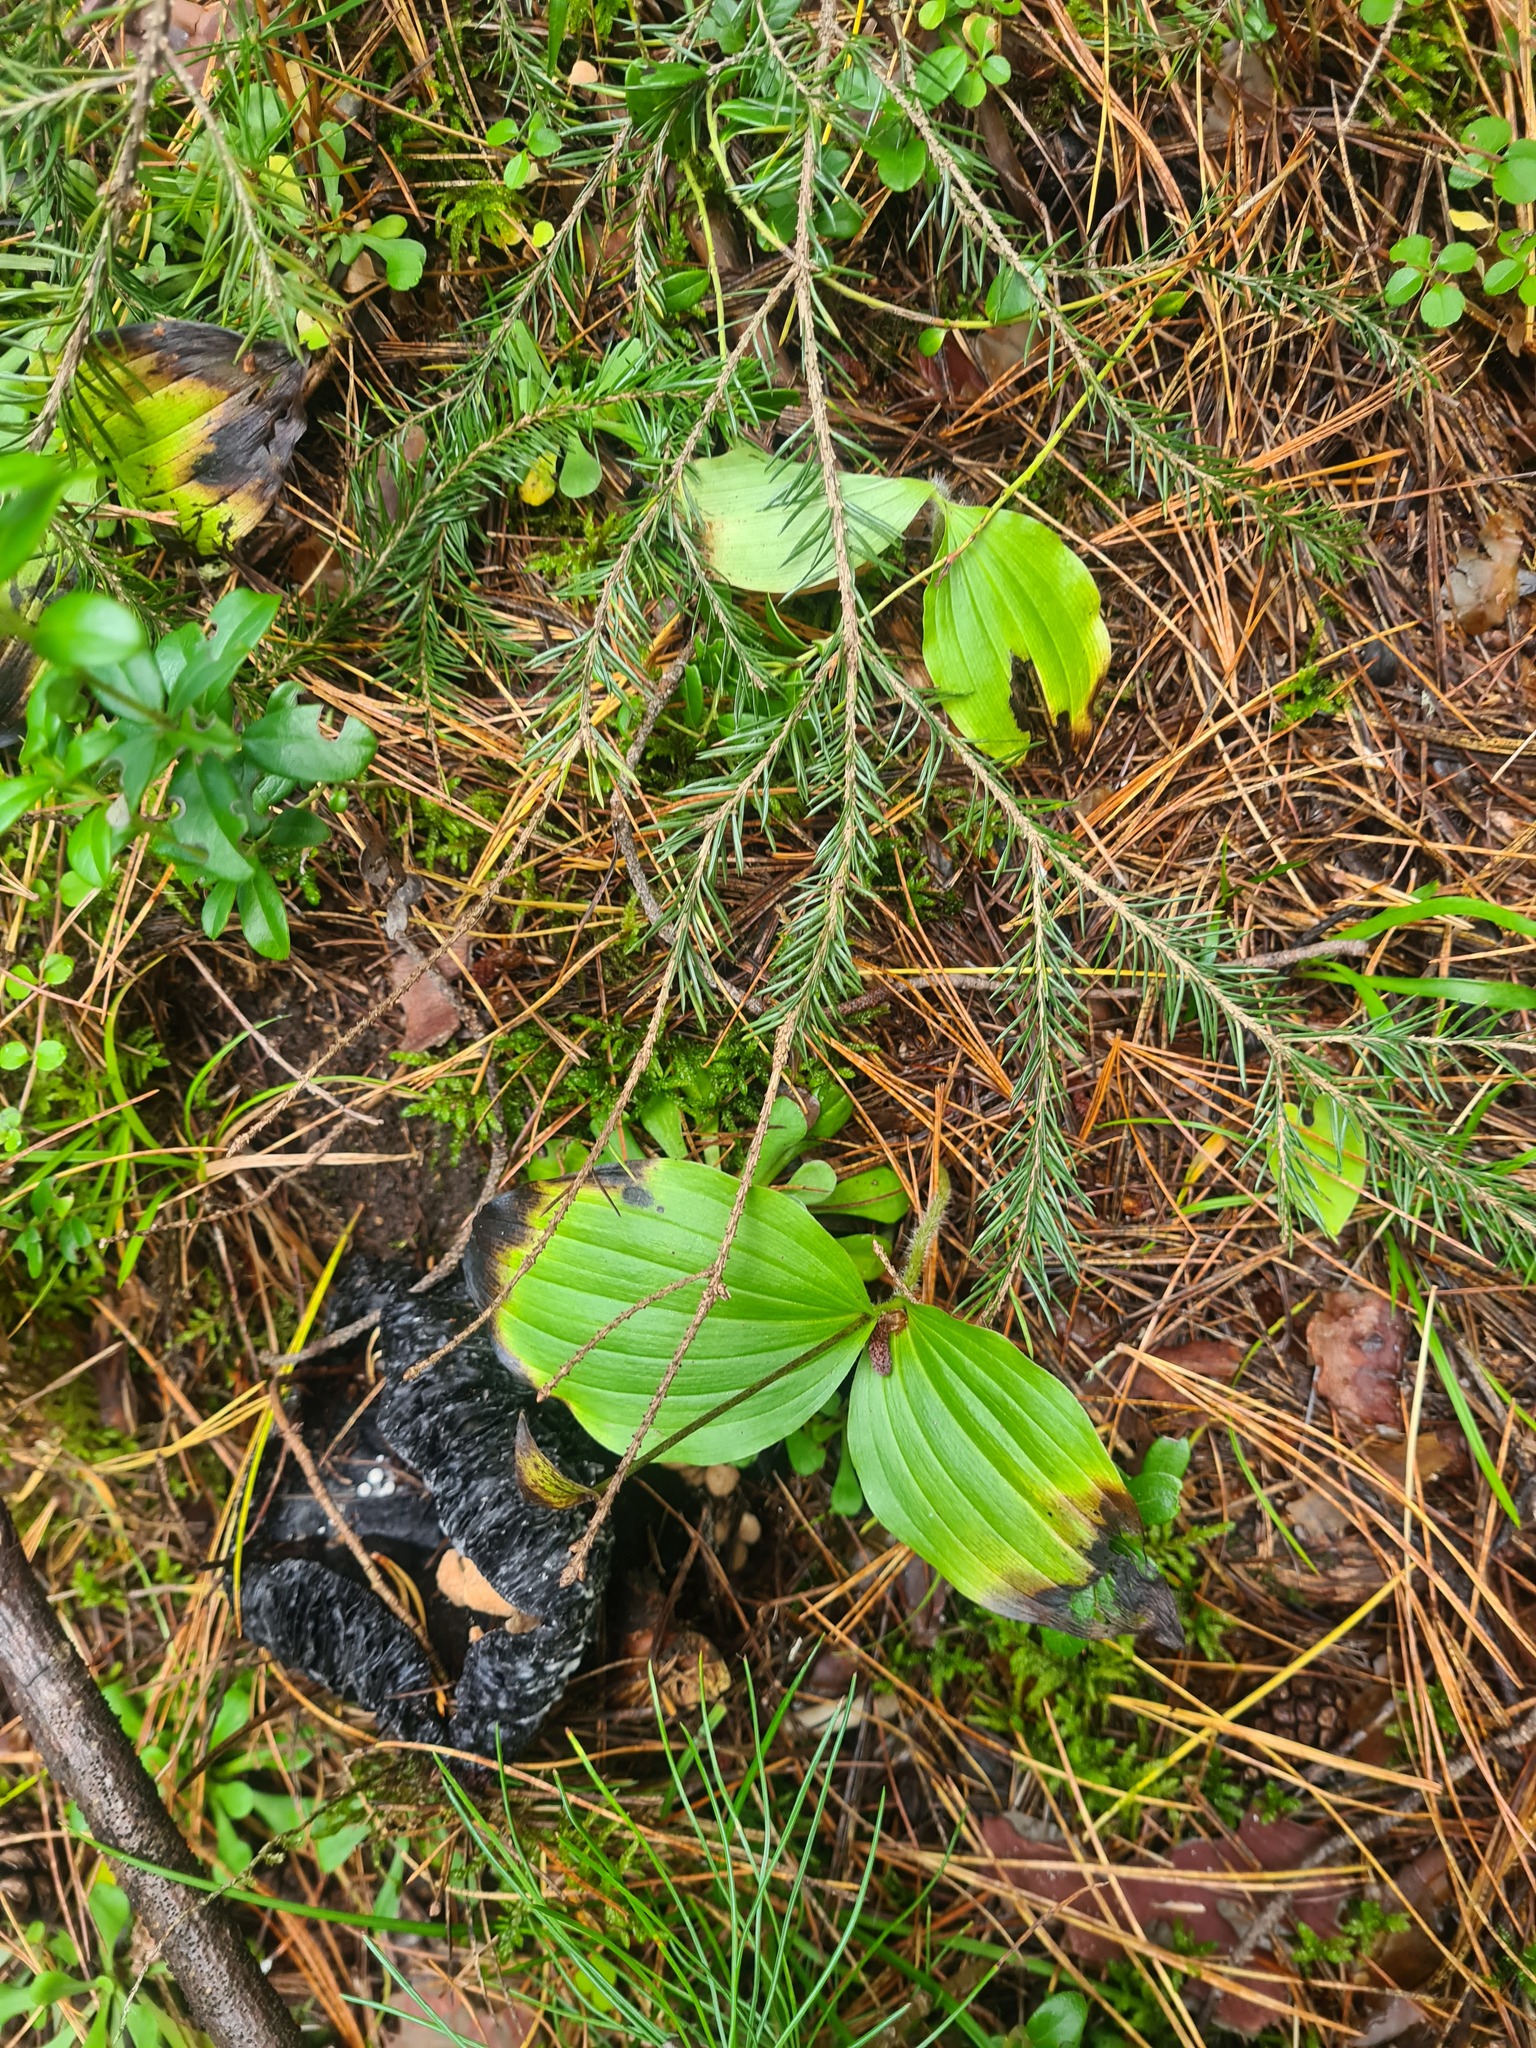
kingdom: Plantae
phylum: Tracheophyta
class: Liliopsida
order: Asparagales
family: Orchidaceae
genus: Cypripedium
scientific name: Cypripedium guttatum
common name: Pink lady slipper
